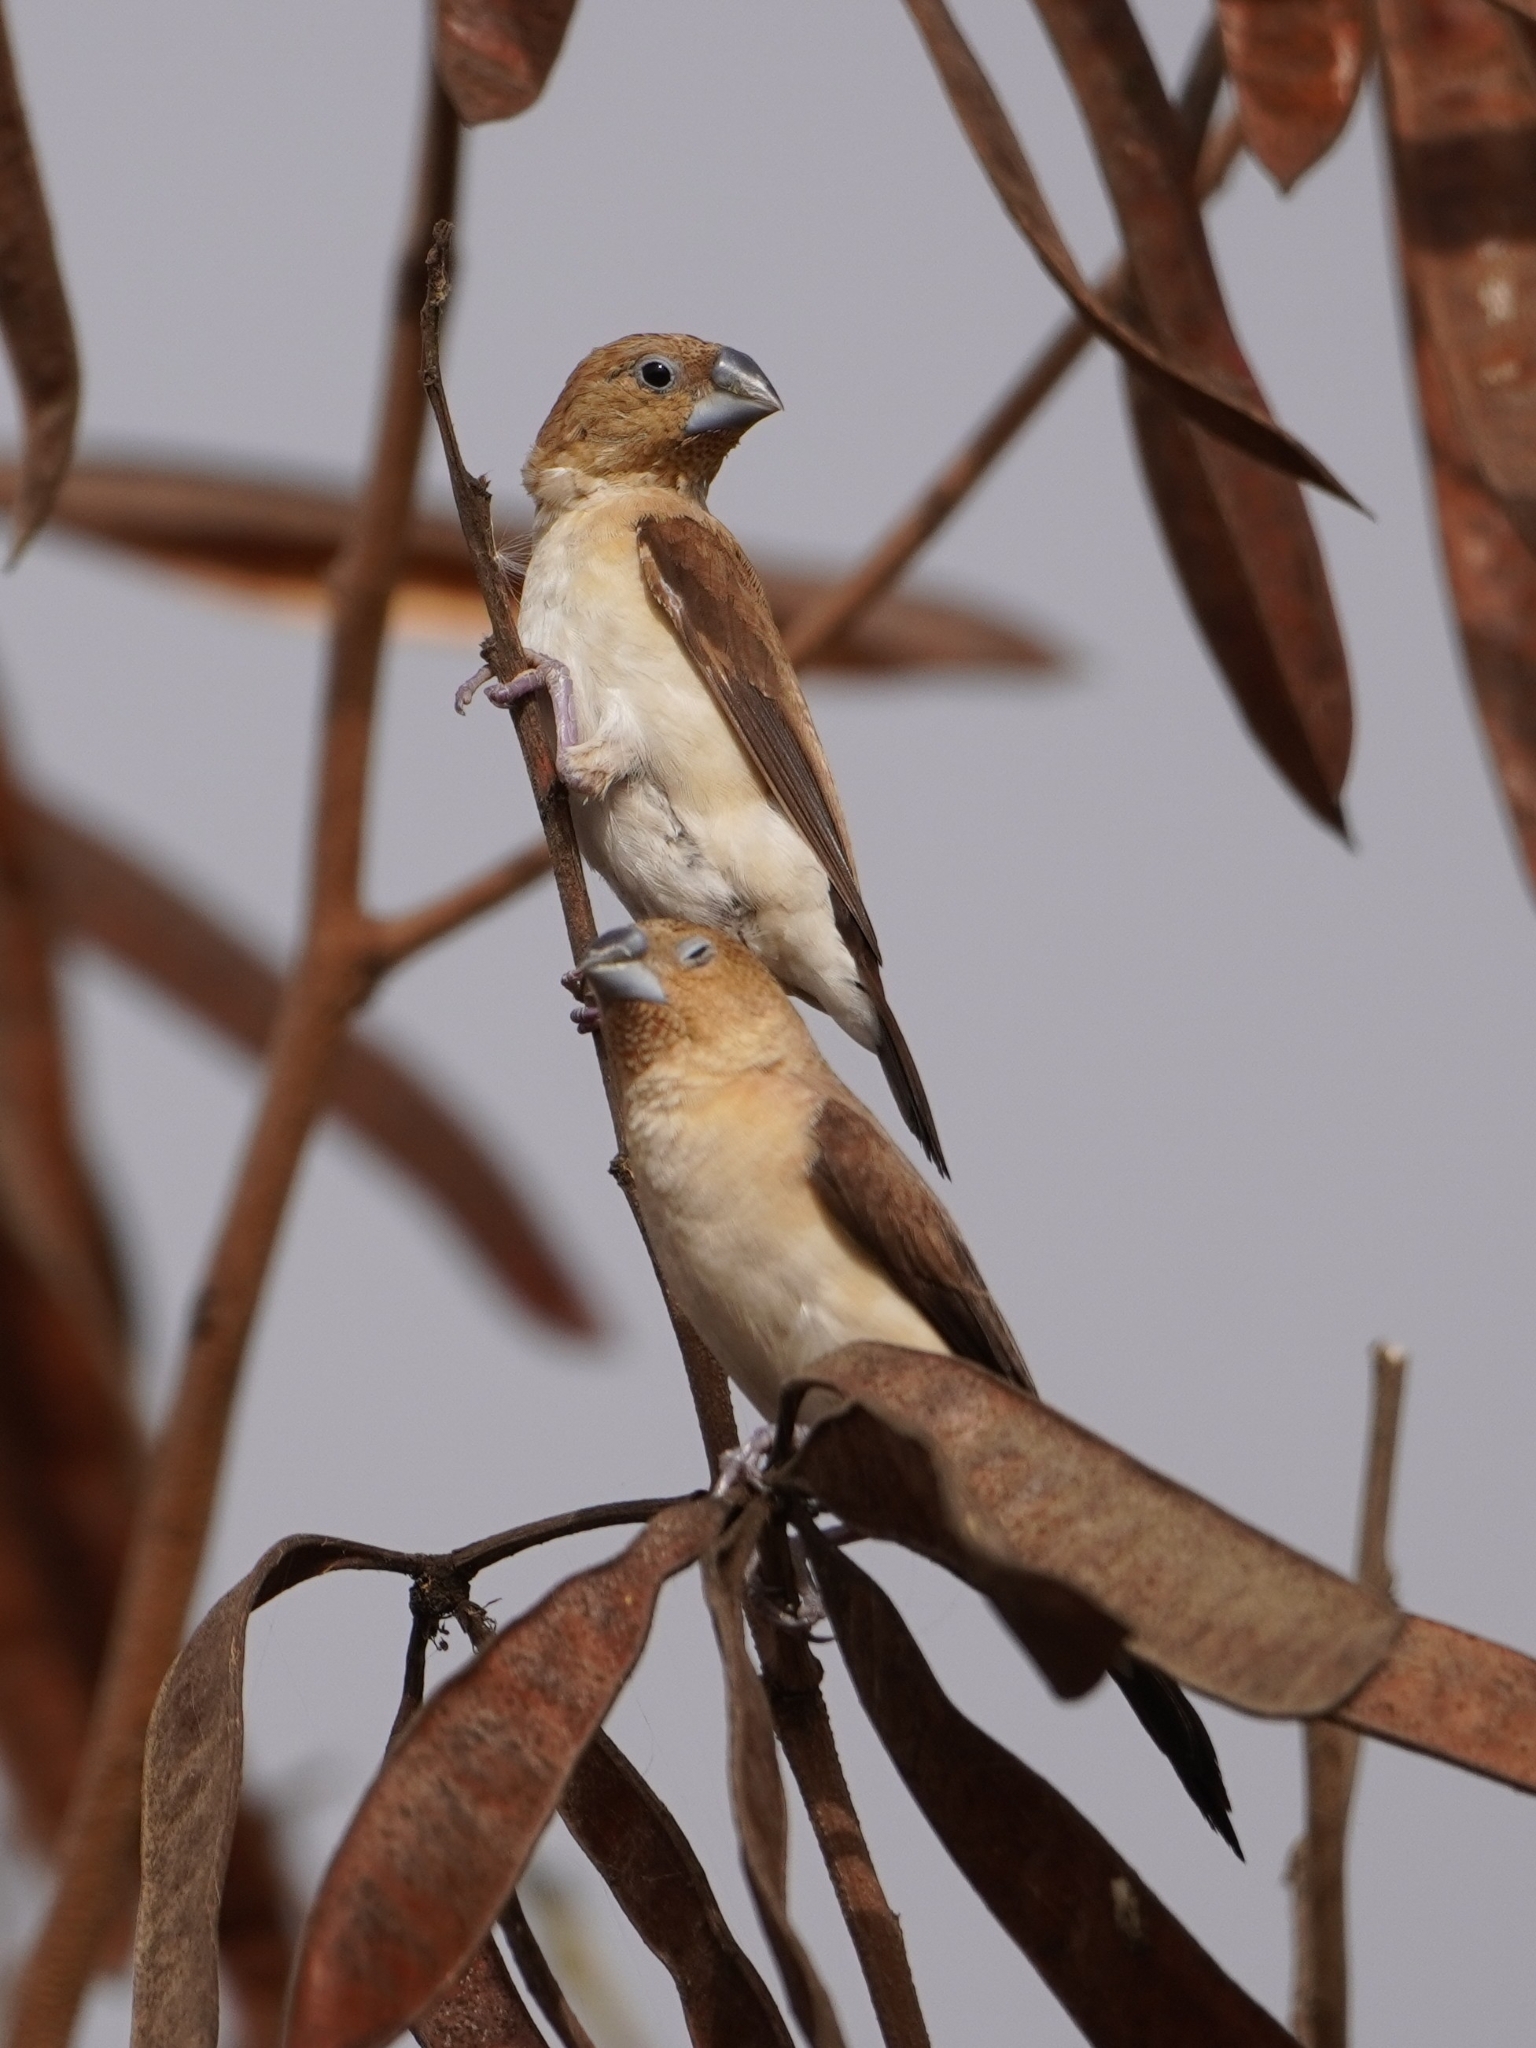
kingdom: Animalia
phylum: Chordata
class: Aves
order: Passeriformes
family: Estrildidae
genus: Euodice
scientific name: Euodice cantans
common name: African silverbill
